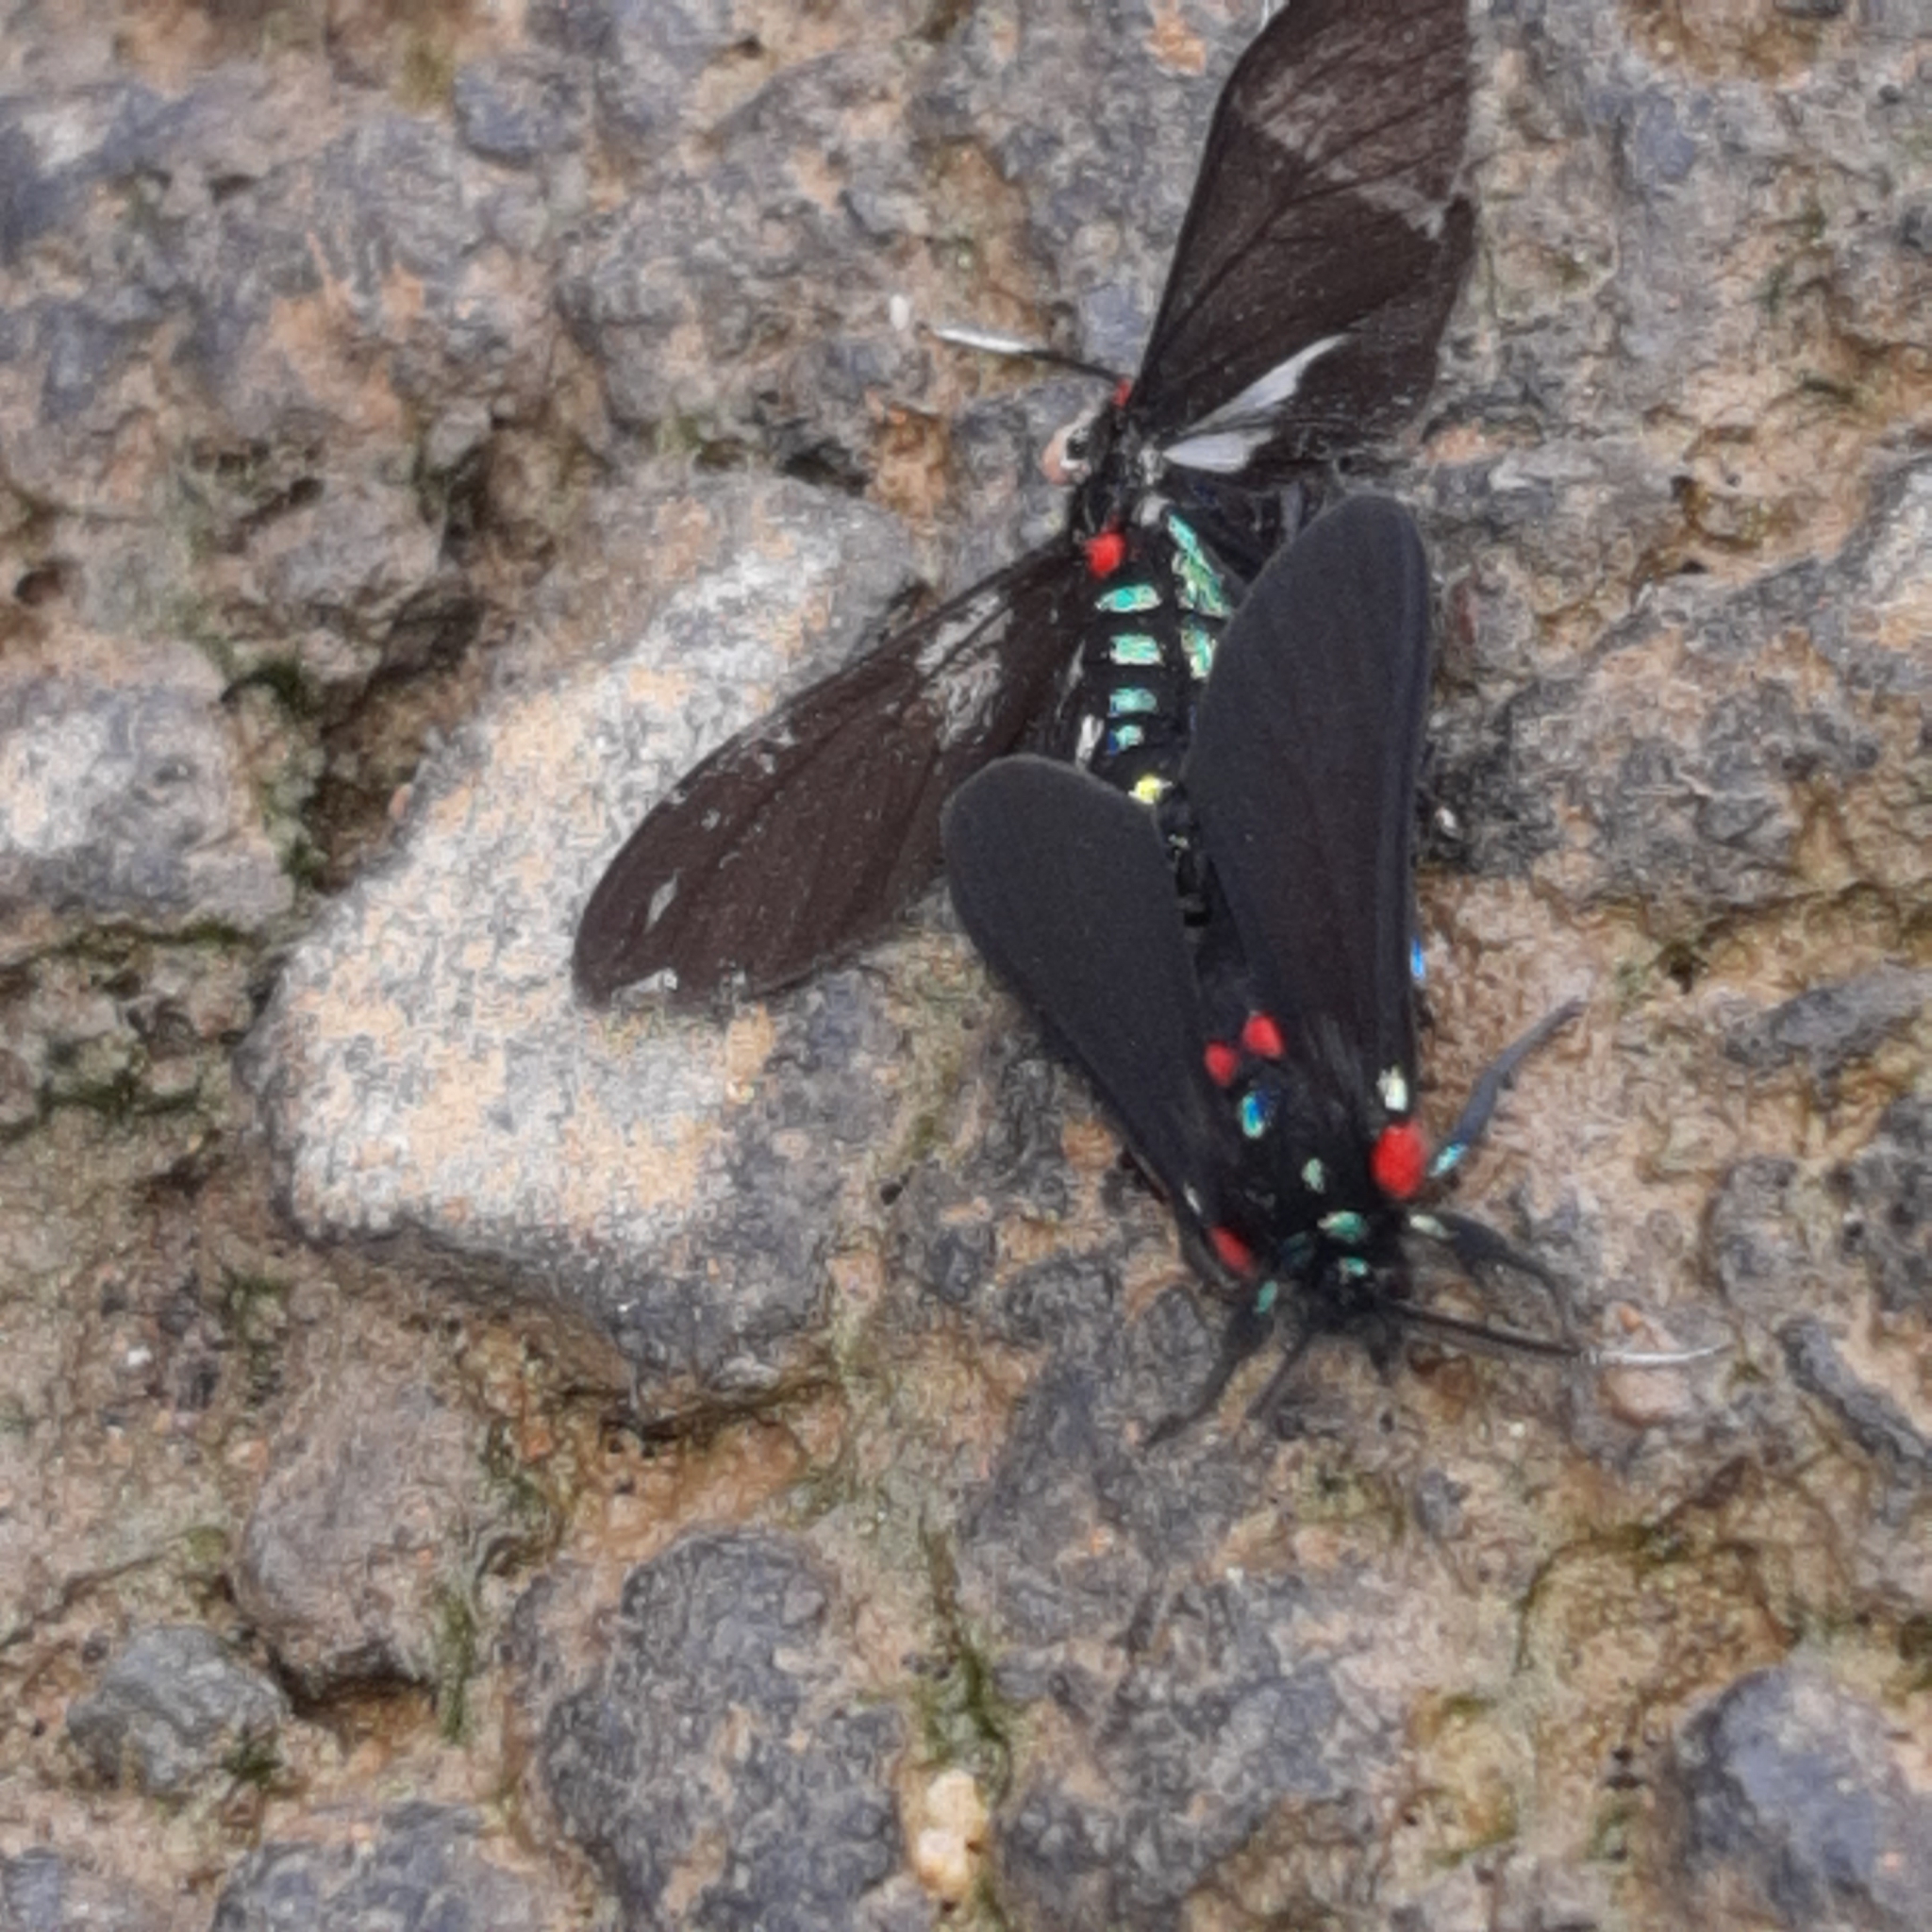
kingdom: Animalia
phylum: Arthropoda
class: Insecta
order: Lepidoptera
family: Erebidae
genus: Ichoria
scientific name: Ichoria quadrigutta
